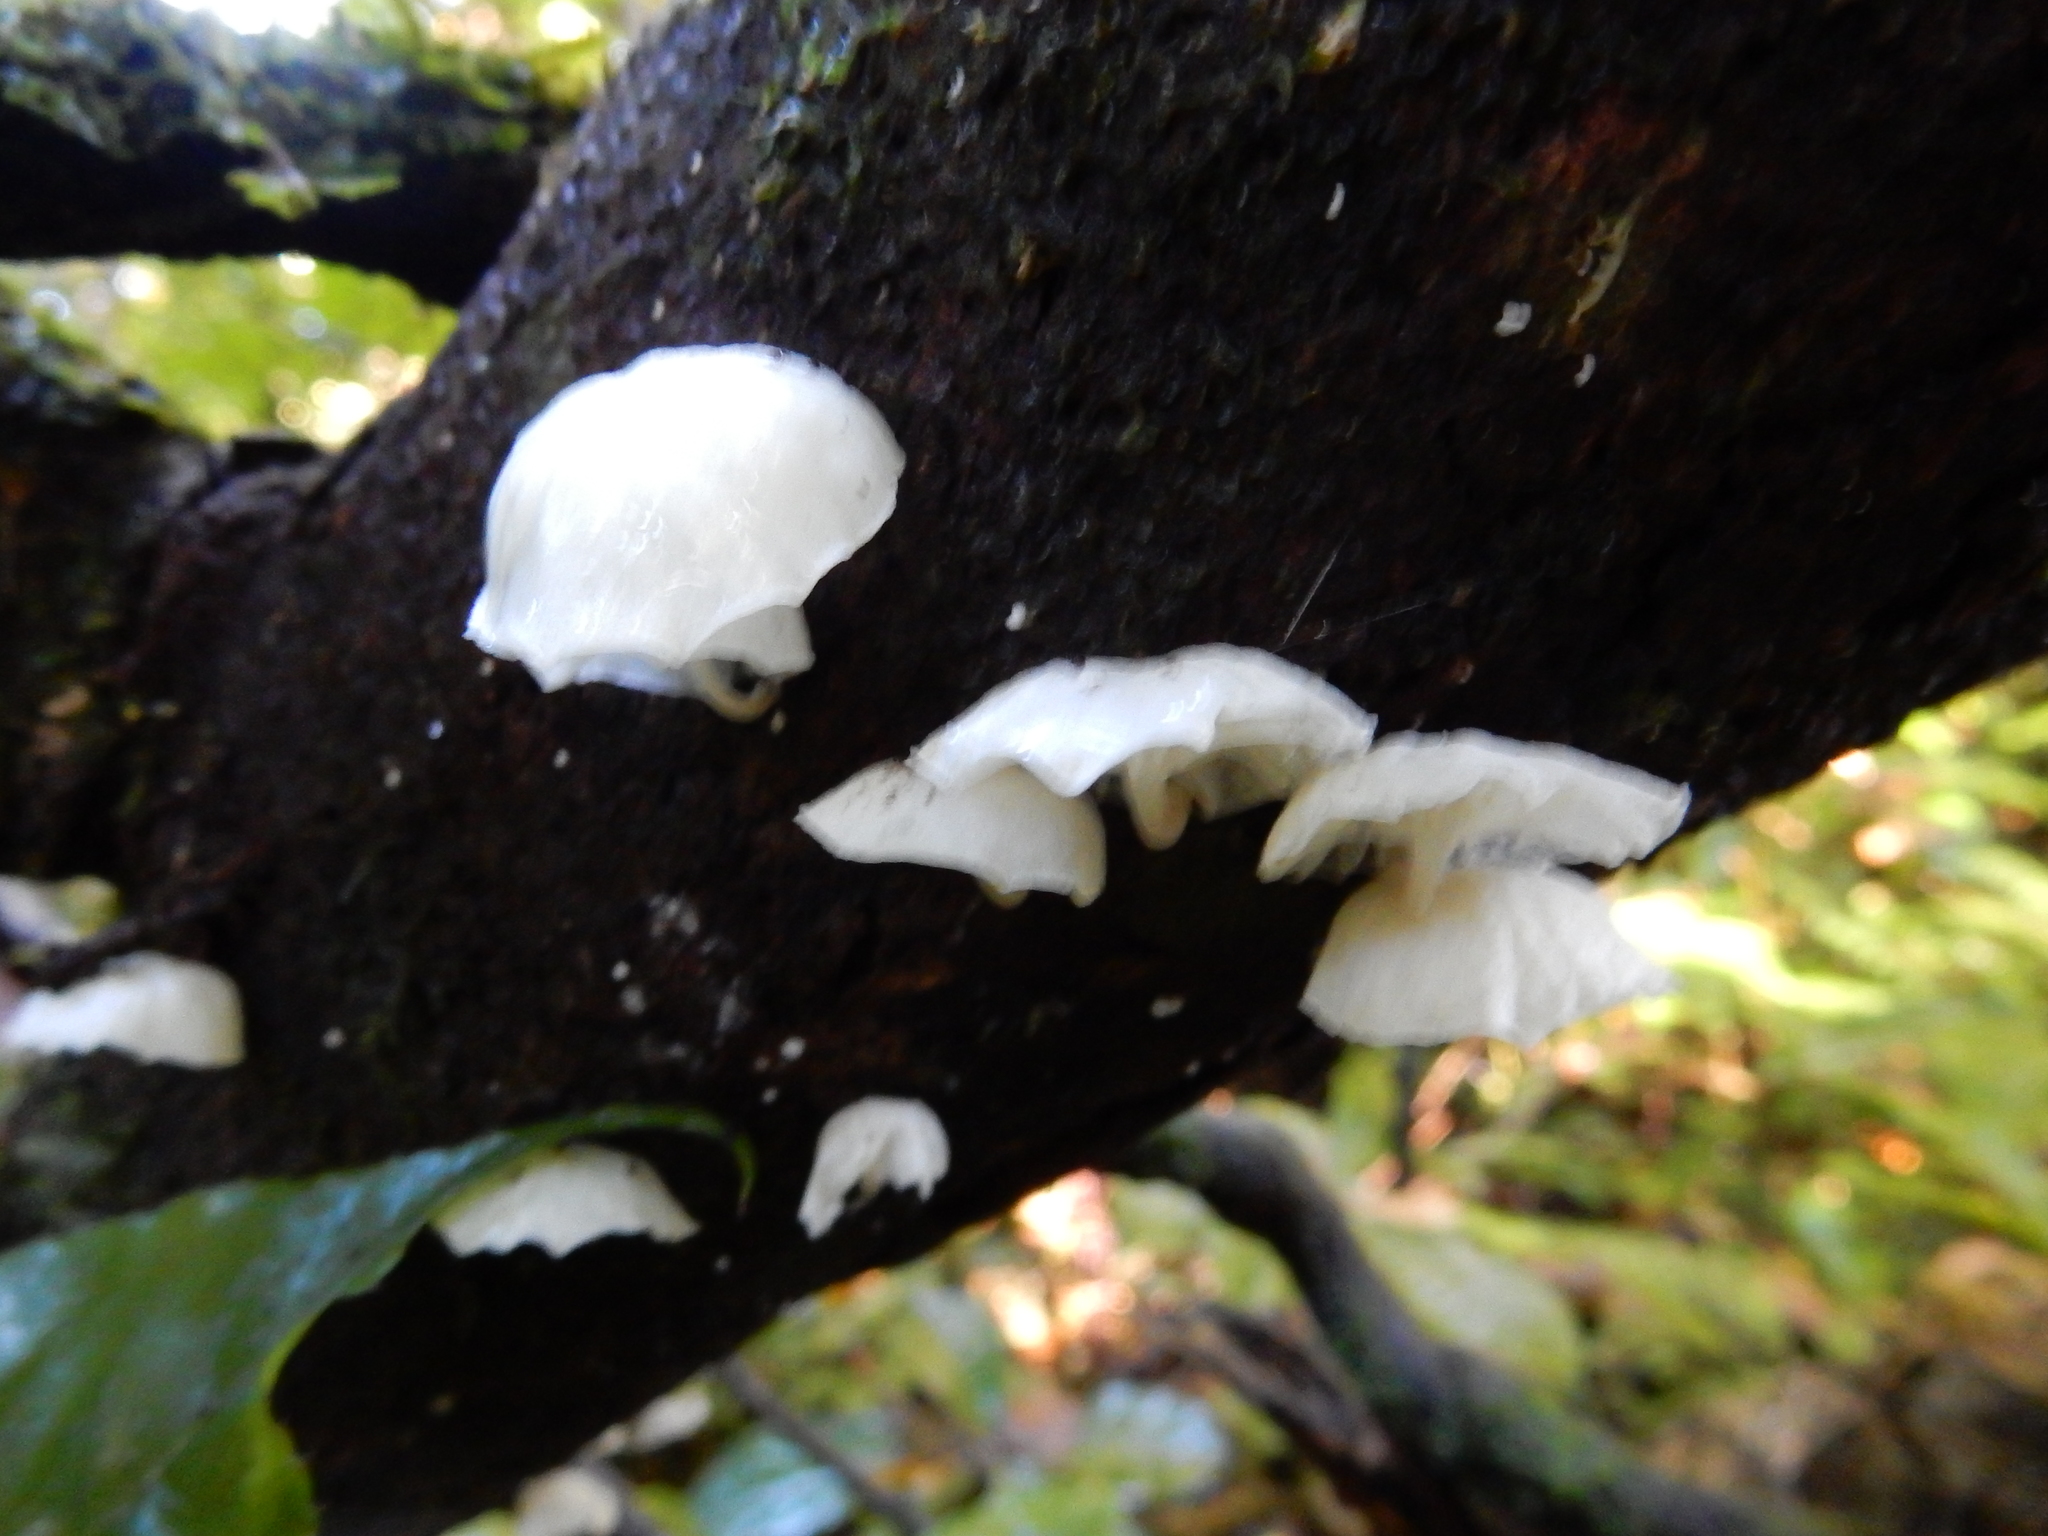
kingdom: Fungi
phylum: Basidiomycota
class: Agaricomycetes
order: Agaricales
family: Omphalotaceae
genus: Marasmiellus
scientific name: Marasmiellus candidus
